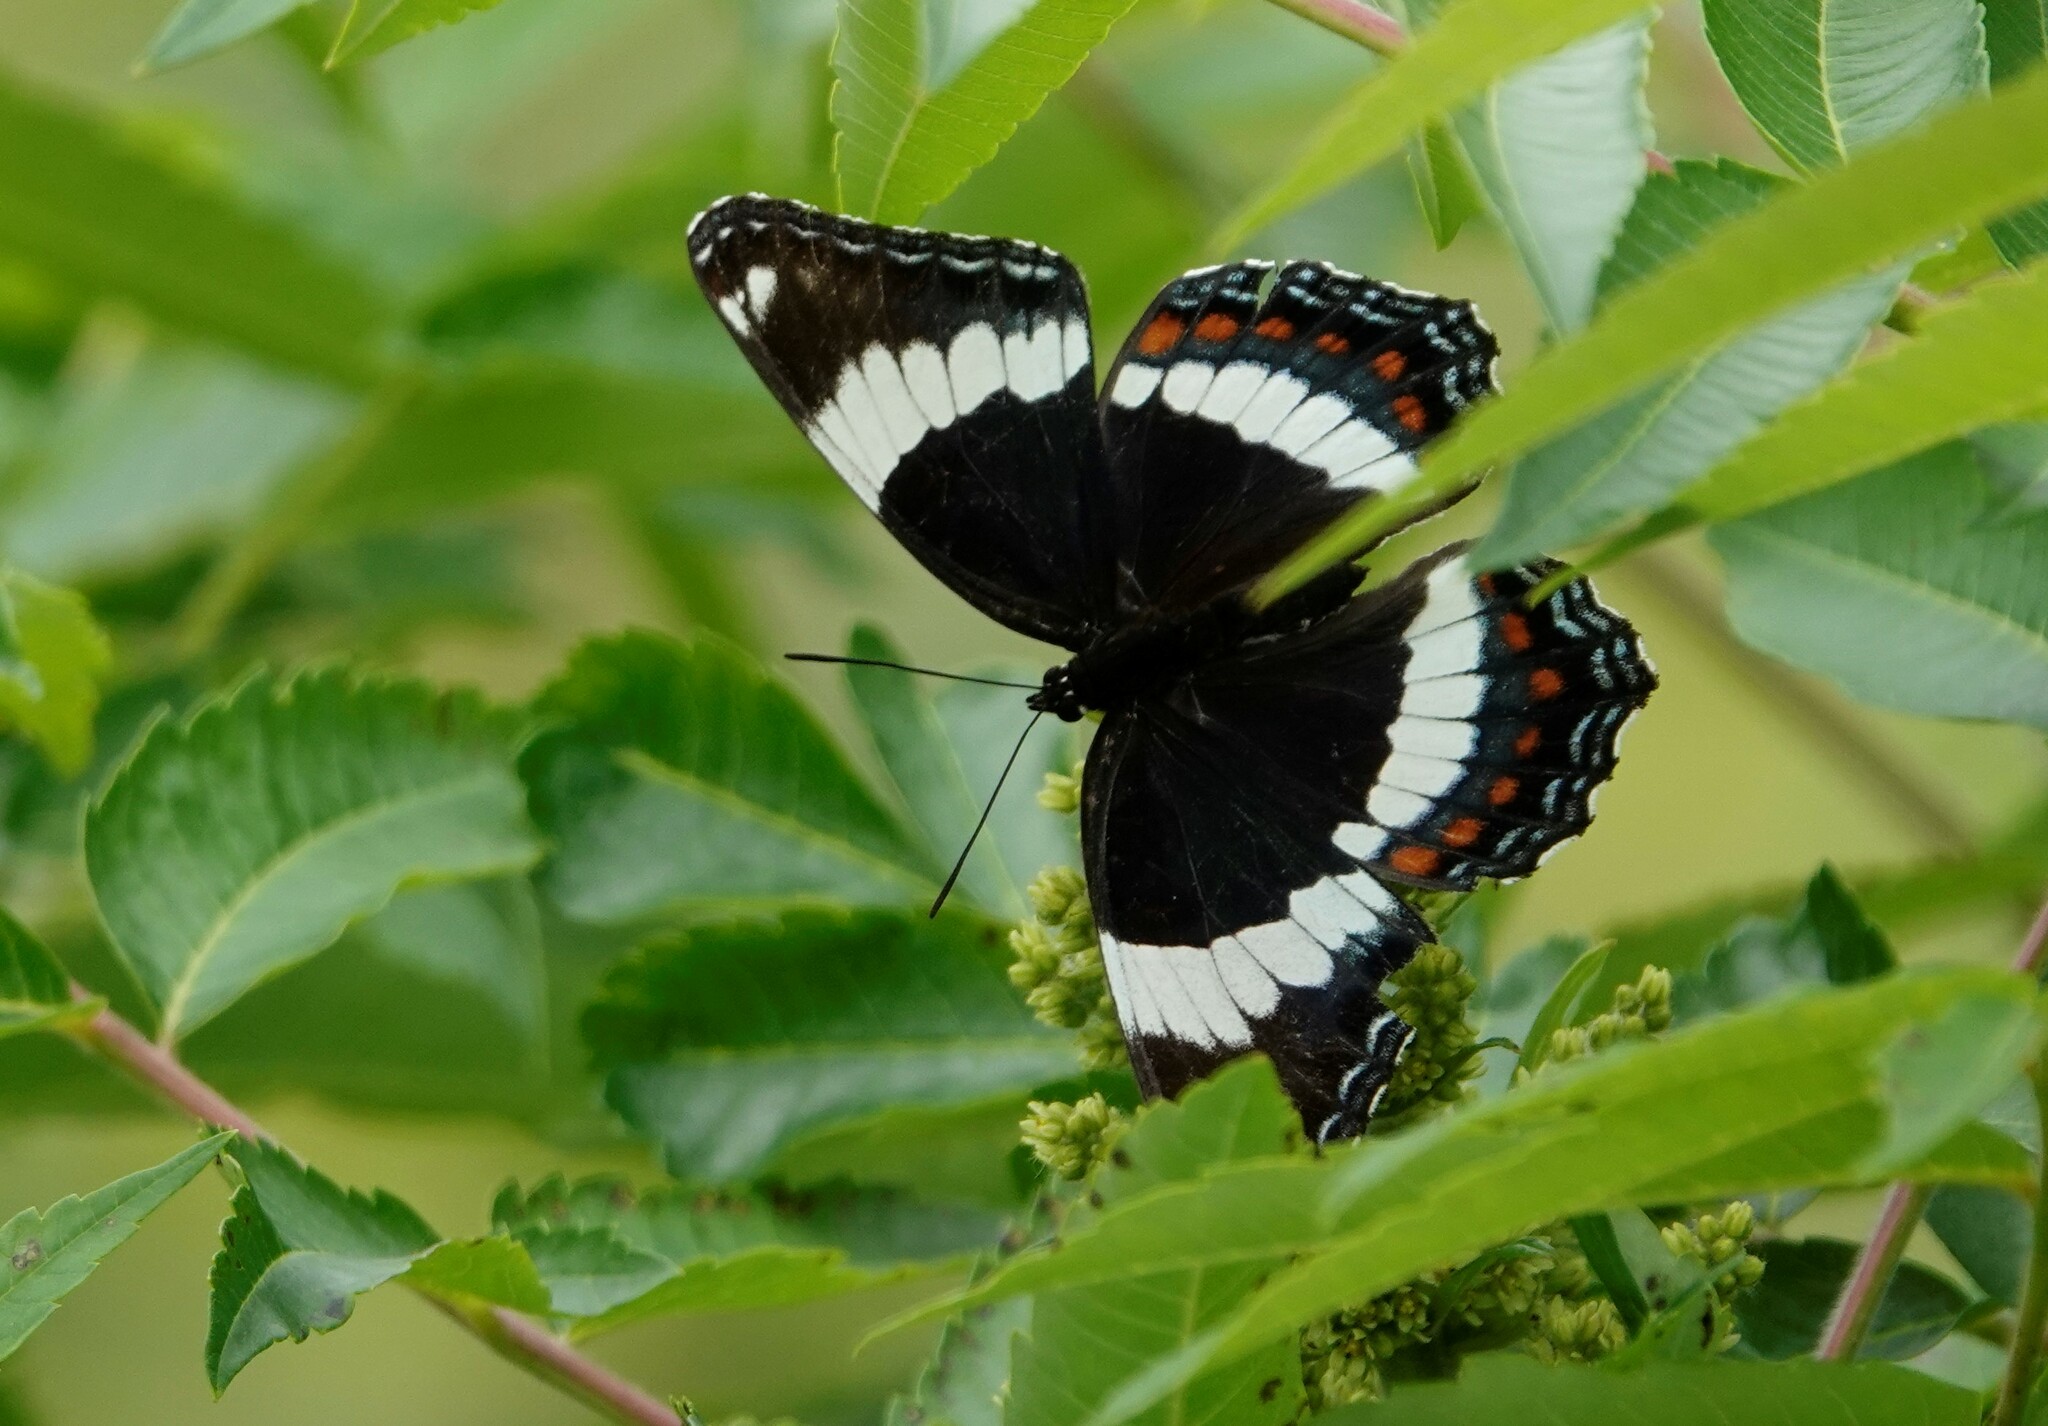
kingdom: Animalia
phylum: Arthropoda
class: Insecta
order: Lepidoptera
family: Nymphalidae
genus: Limenitis
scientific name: Limenitis arthemis
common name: Red-spotted admiral
